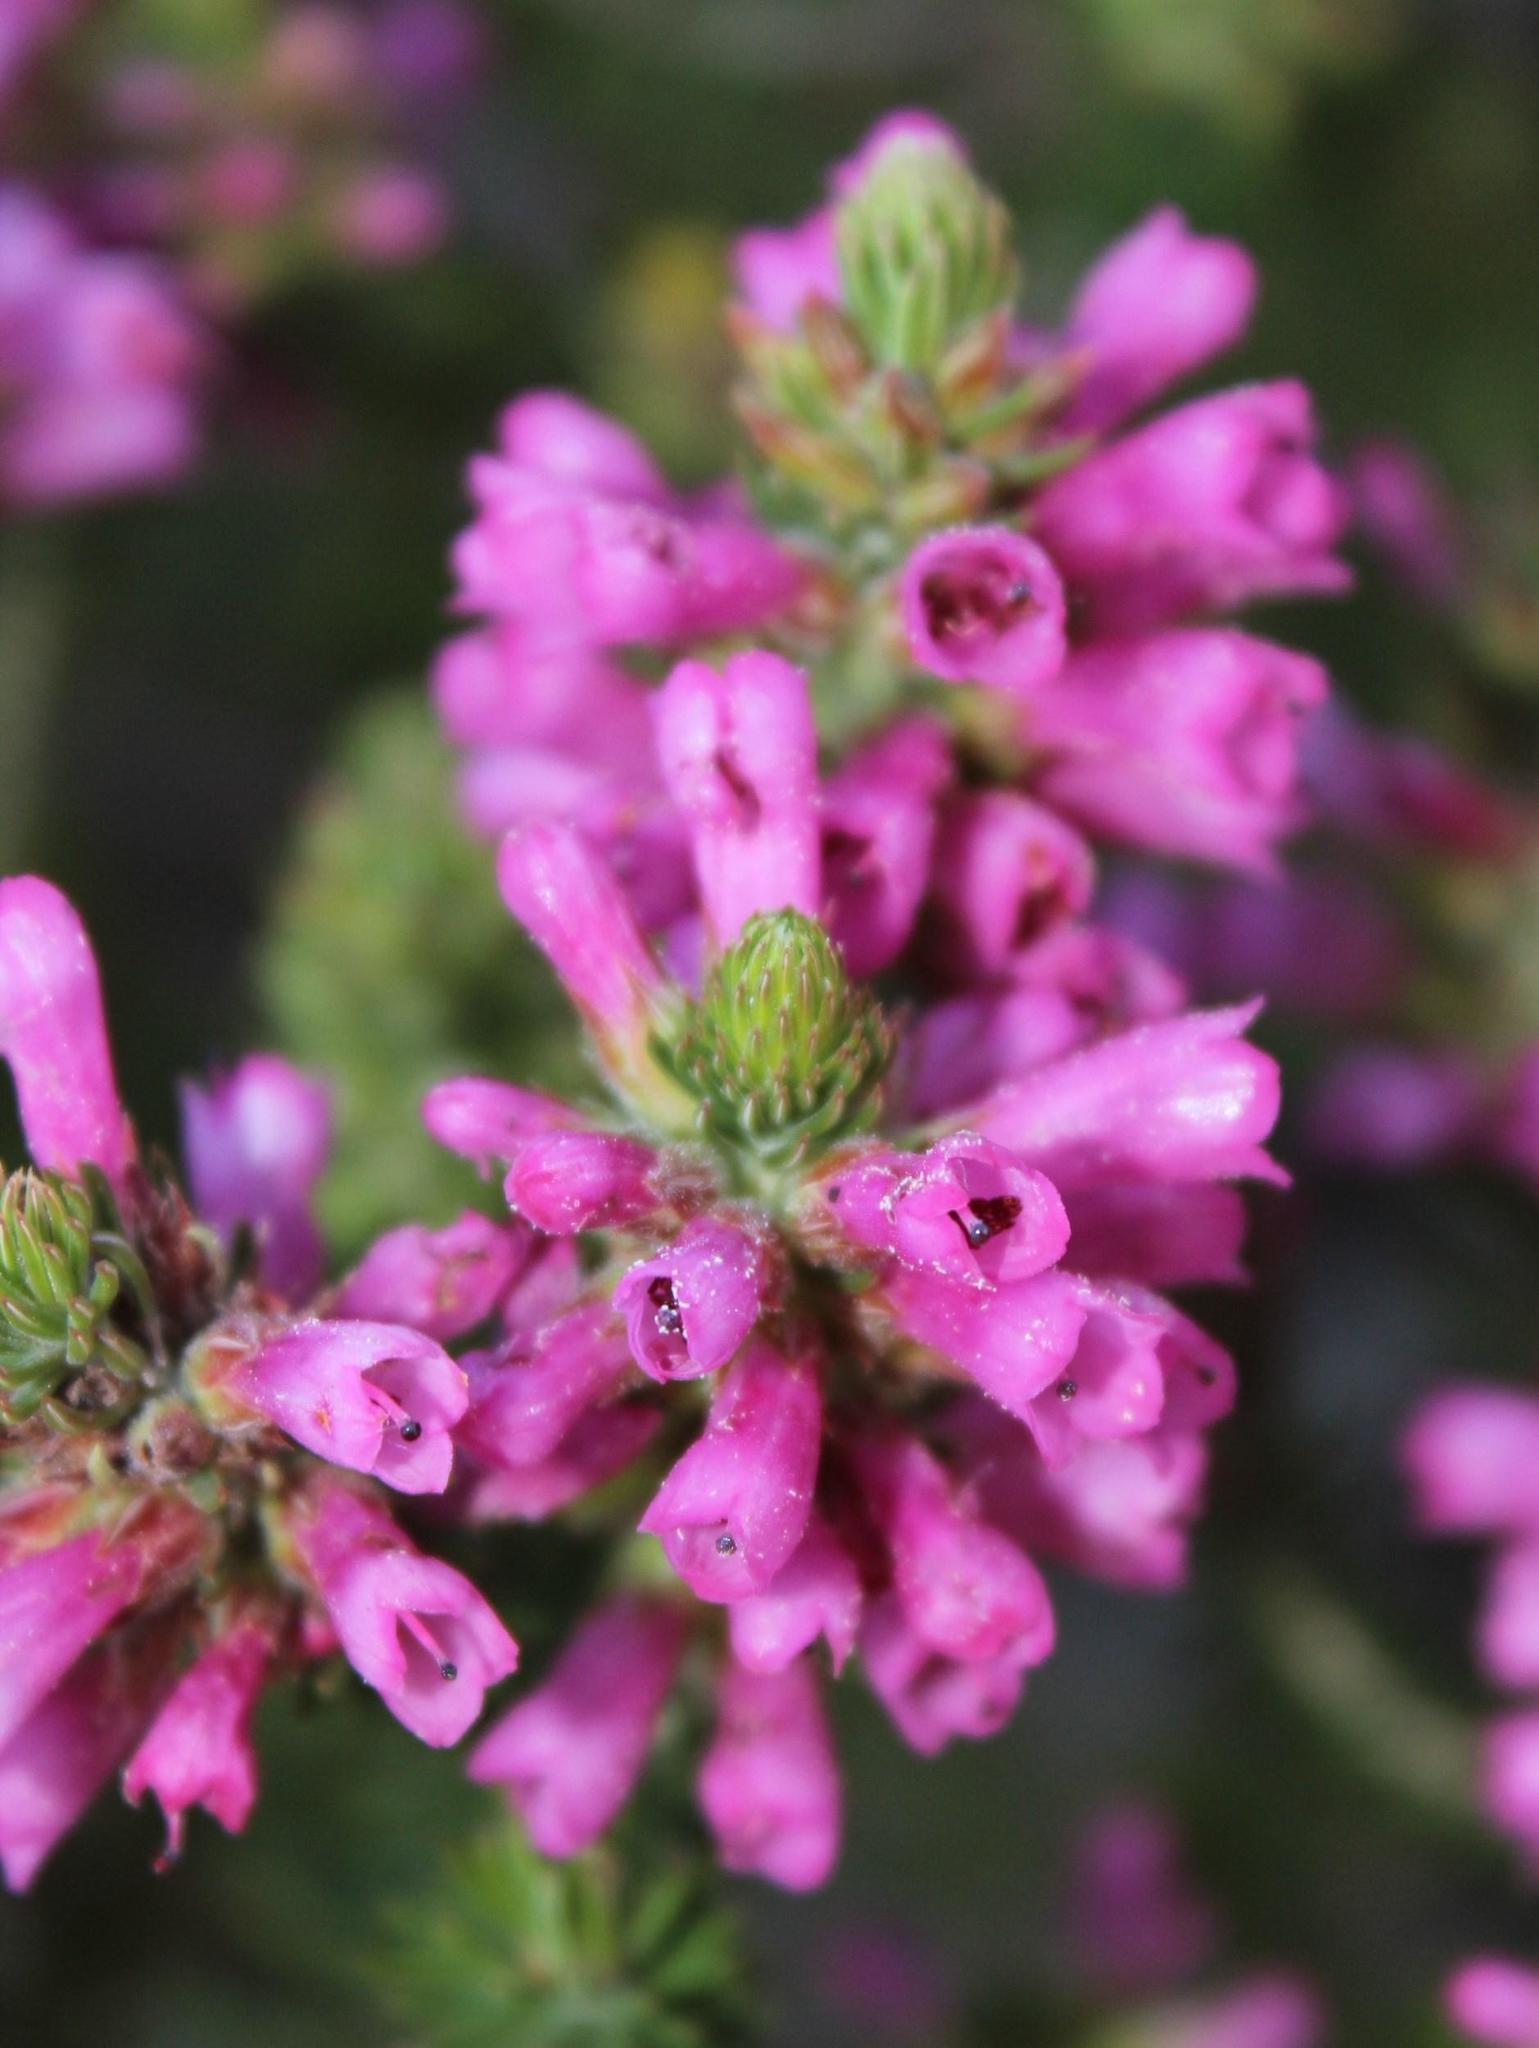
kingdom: Plantae
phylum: Tracheophyta
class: Magnoliopsida
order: Ericales
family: Ericaceae
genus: Erica
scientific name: Erica abietina
